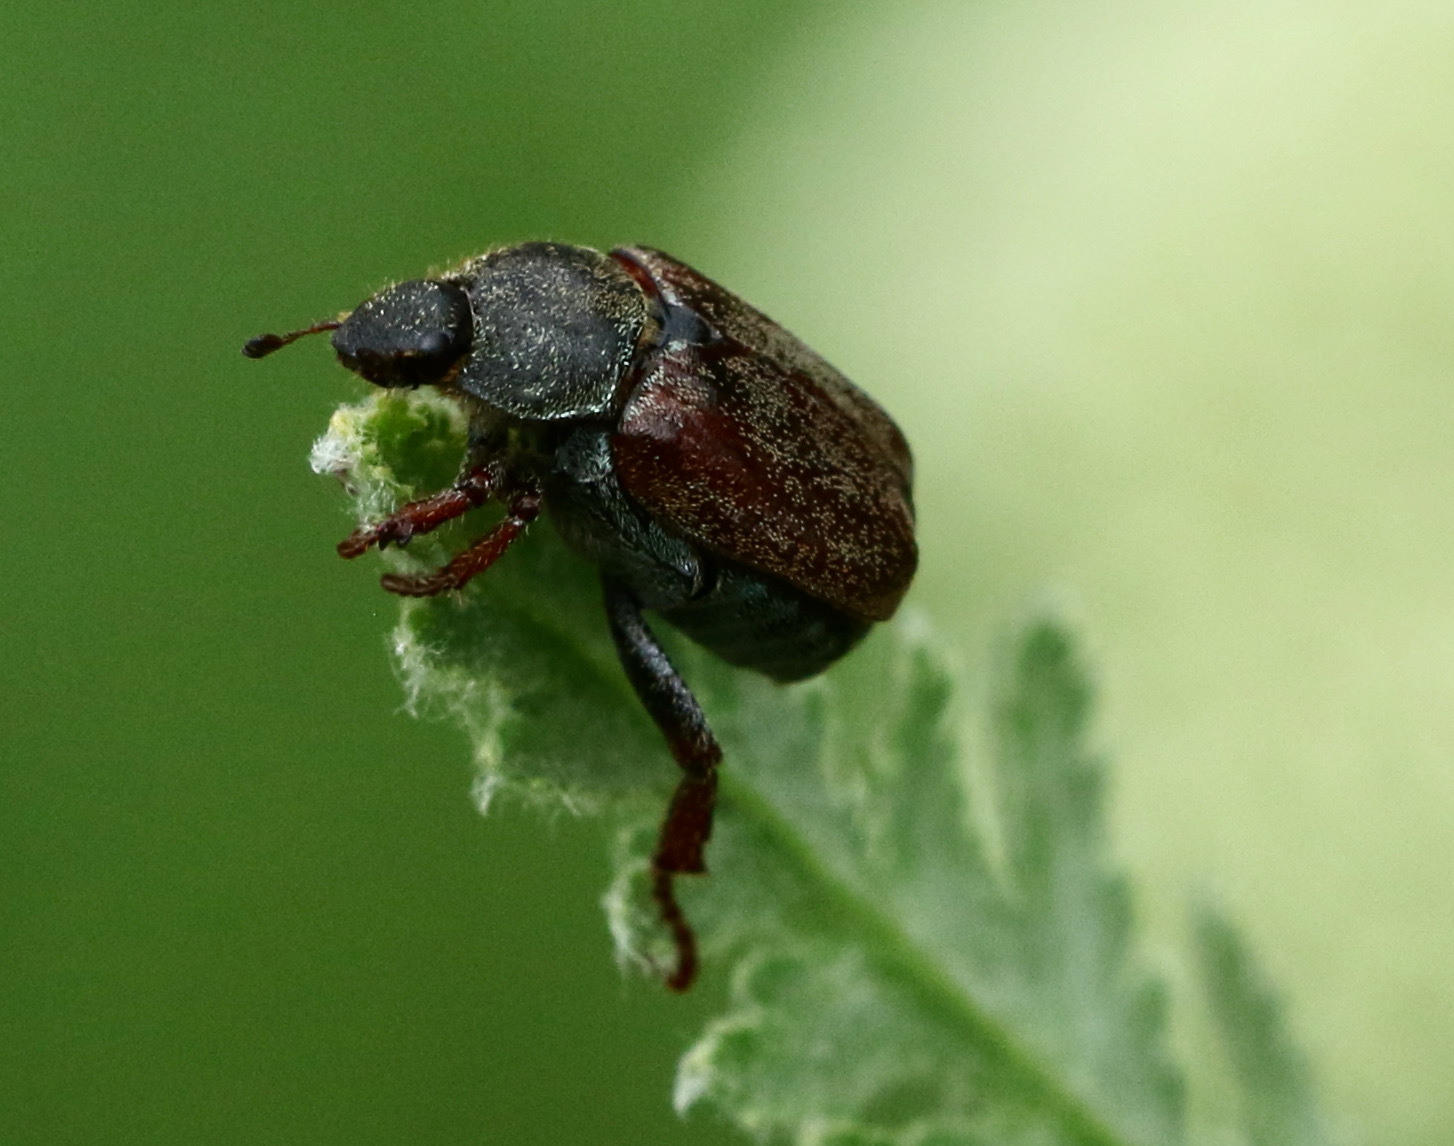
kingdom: Animalia
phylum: Arthropoda
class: Insecta
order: Coleoptera
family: Scarabaeidae
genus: Hoplia
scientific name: Hoplia philanthus
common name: Welsh chafer
